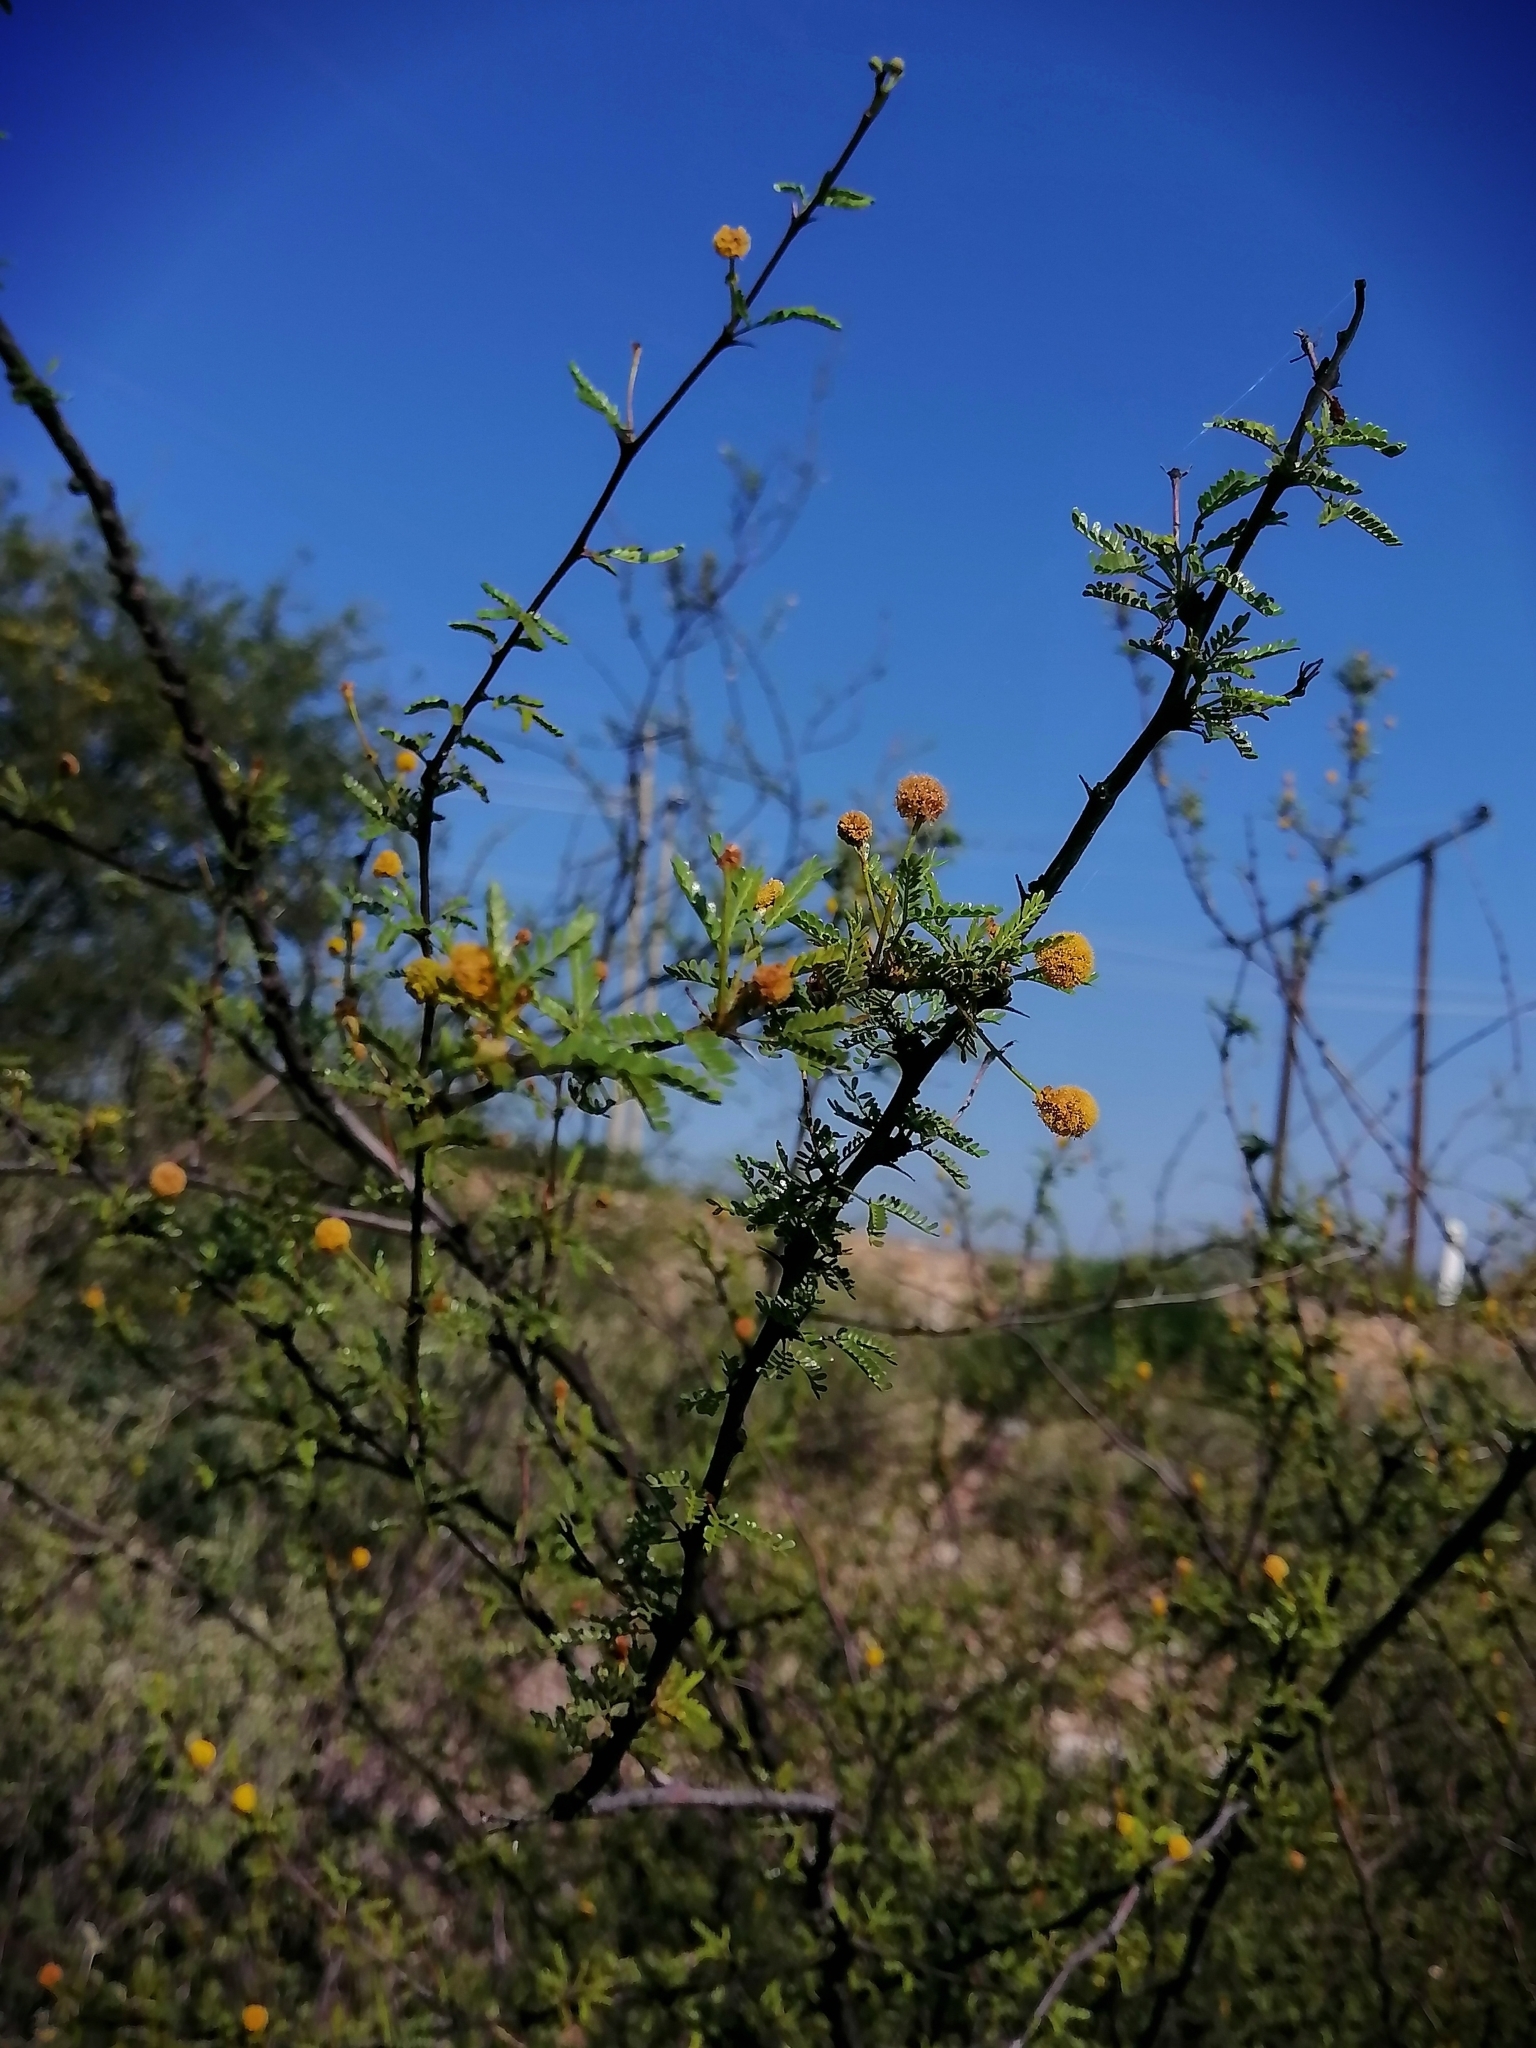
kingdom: Plantae
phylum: Tracheophyta
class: Magnoliopsida
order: Fabales
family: Fabaceae
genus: Vachellia
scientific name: Vachellia vernicosa
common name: Viscid acacia
